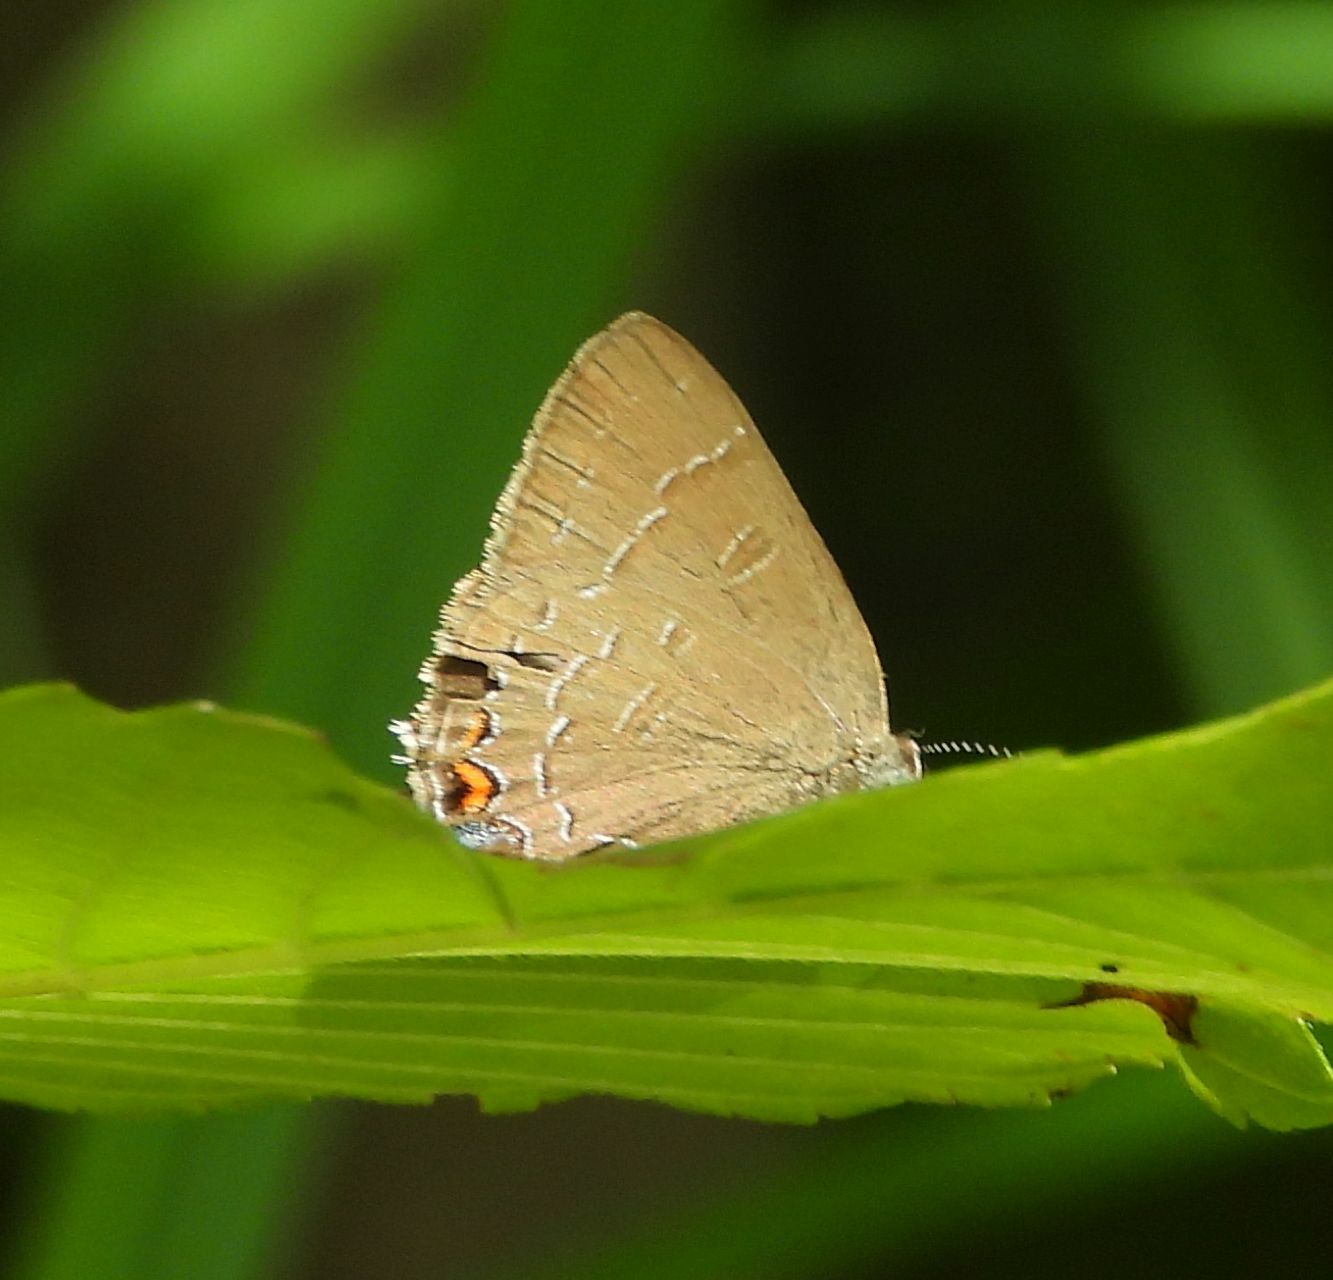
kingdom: Animalia
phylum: Arthropoda
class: Insecta
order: Lepidoptera
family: Lycaenidae
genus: Satyrium
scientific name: Satyrium calanus
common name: Banded hairstreak
